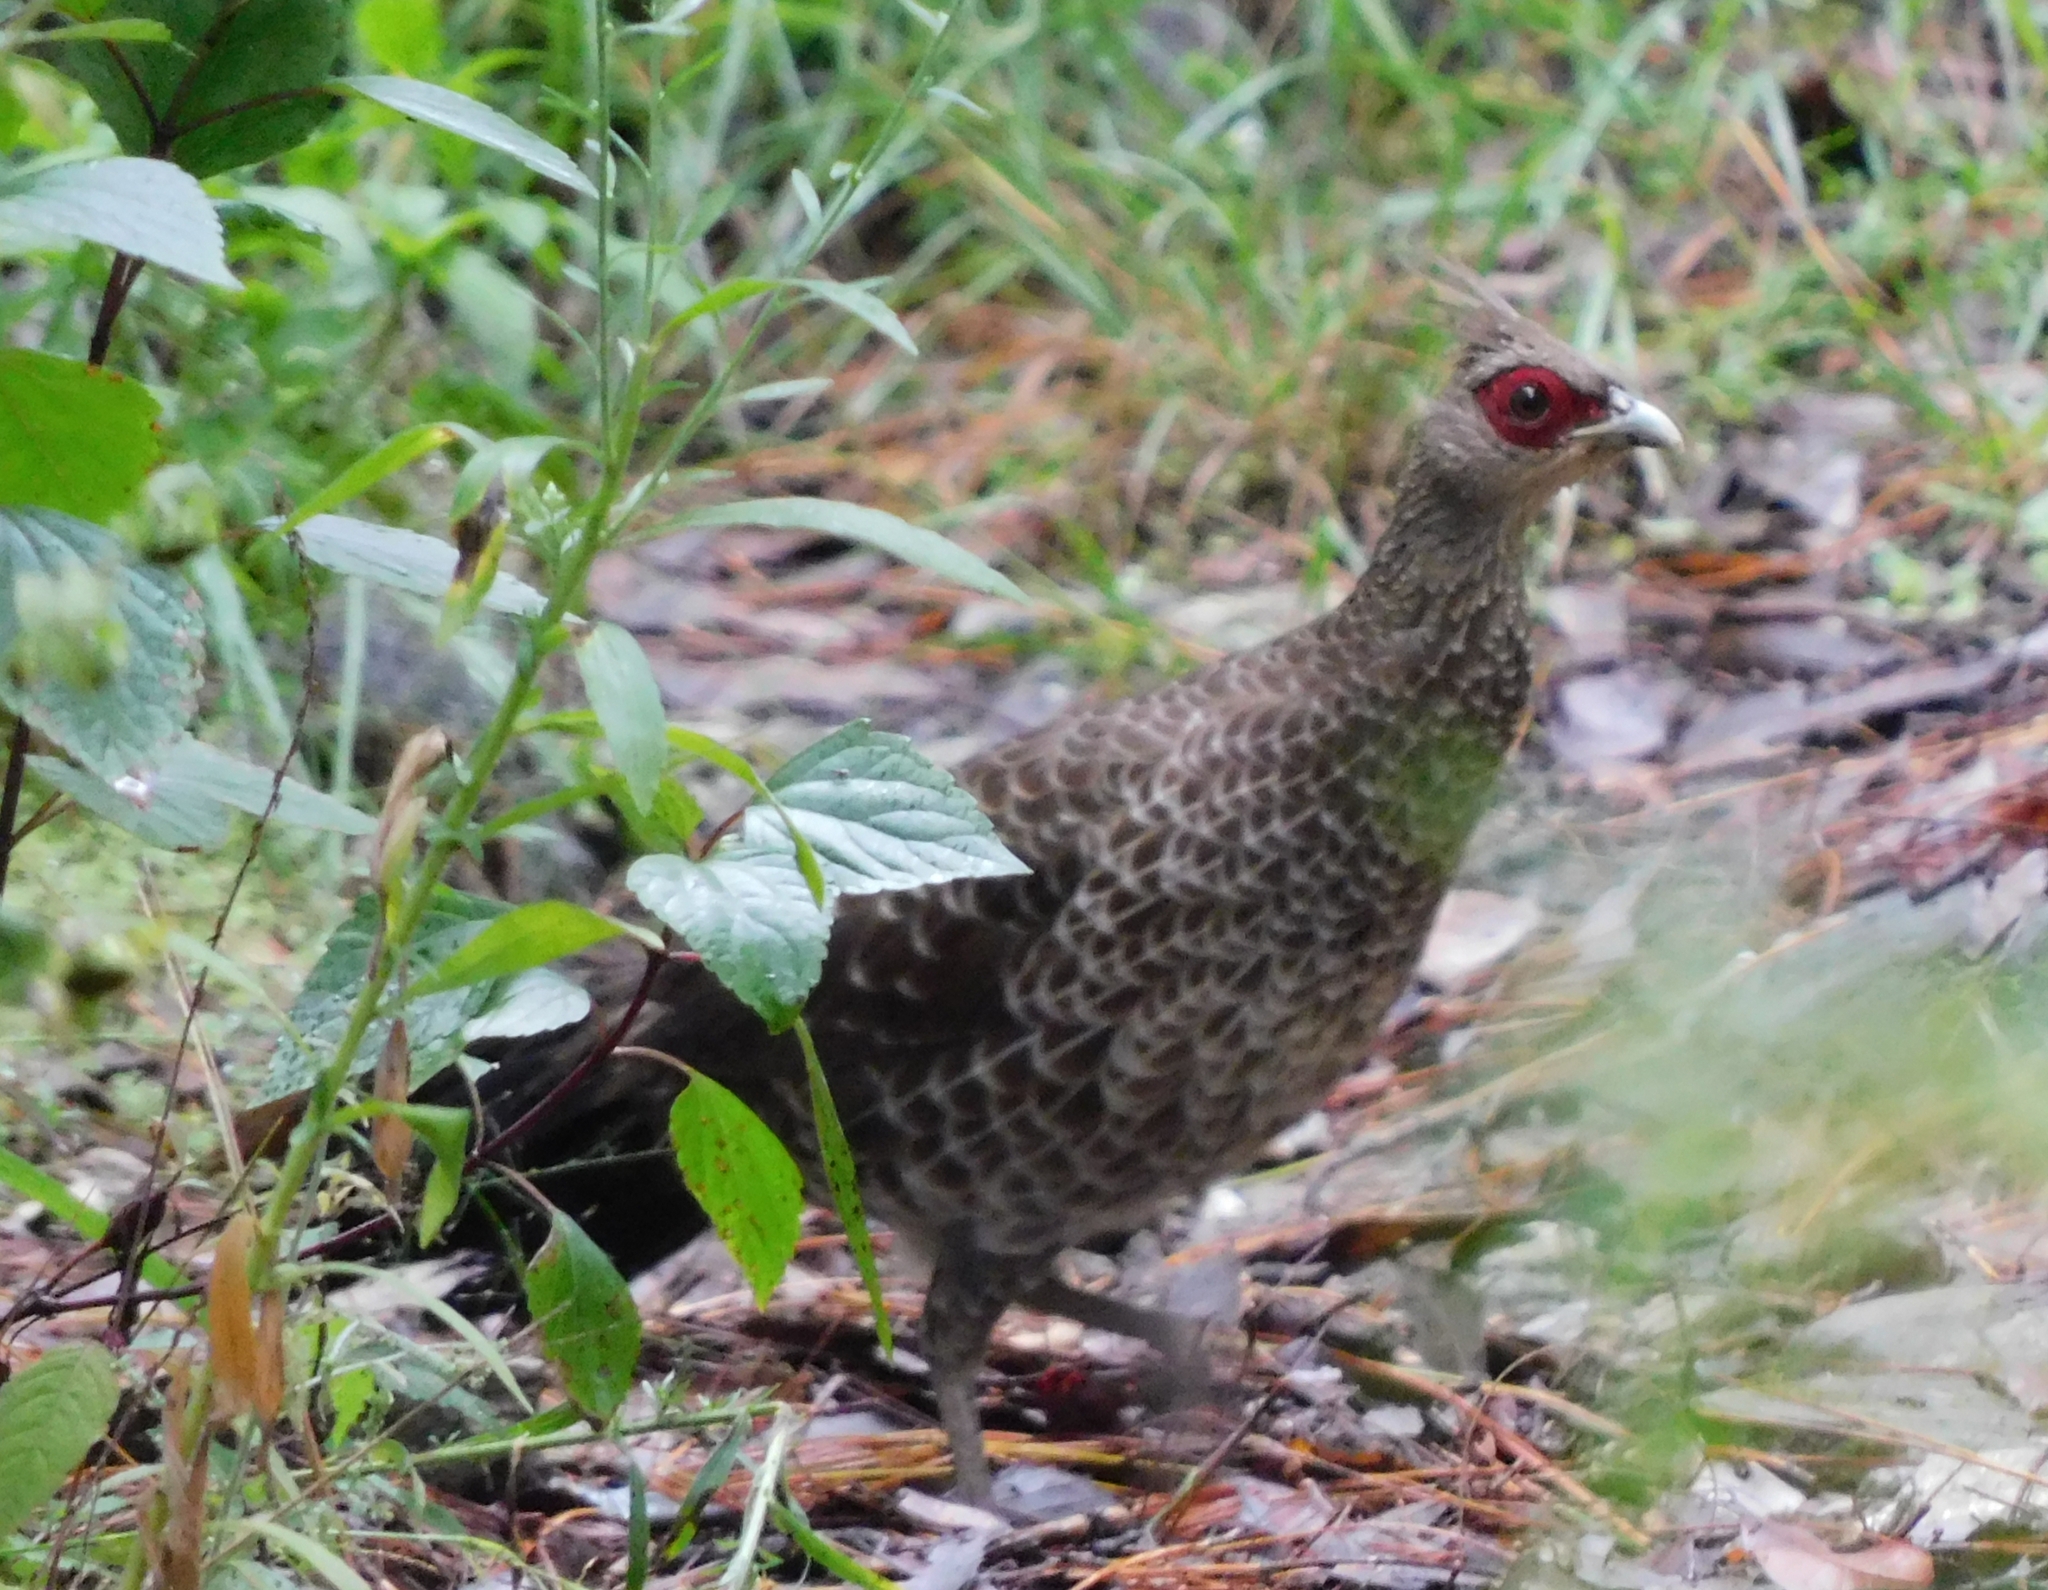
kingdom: Animalia
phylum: Chordata
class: Aves
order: Galliformes
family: Phasianidae
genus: Lophura
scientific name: Lophura leucomelanos
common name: Kalij pheasant
